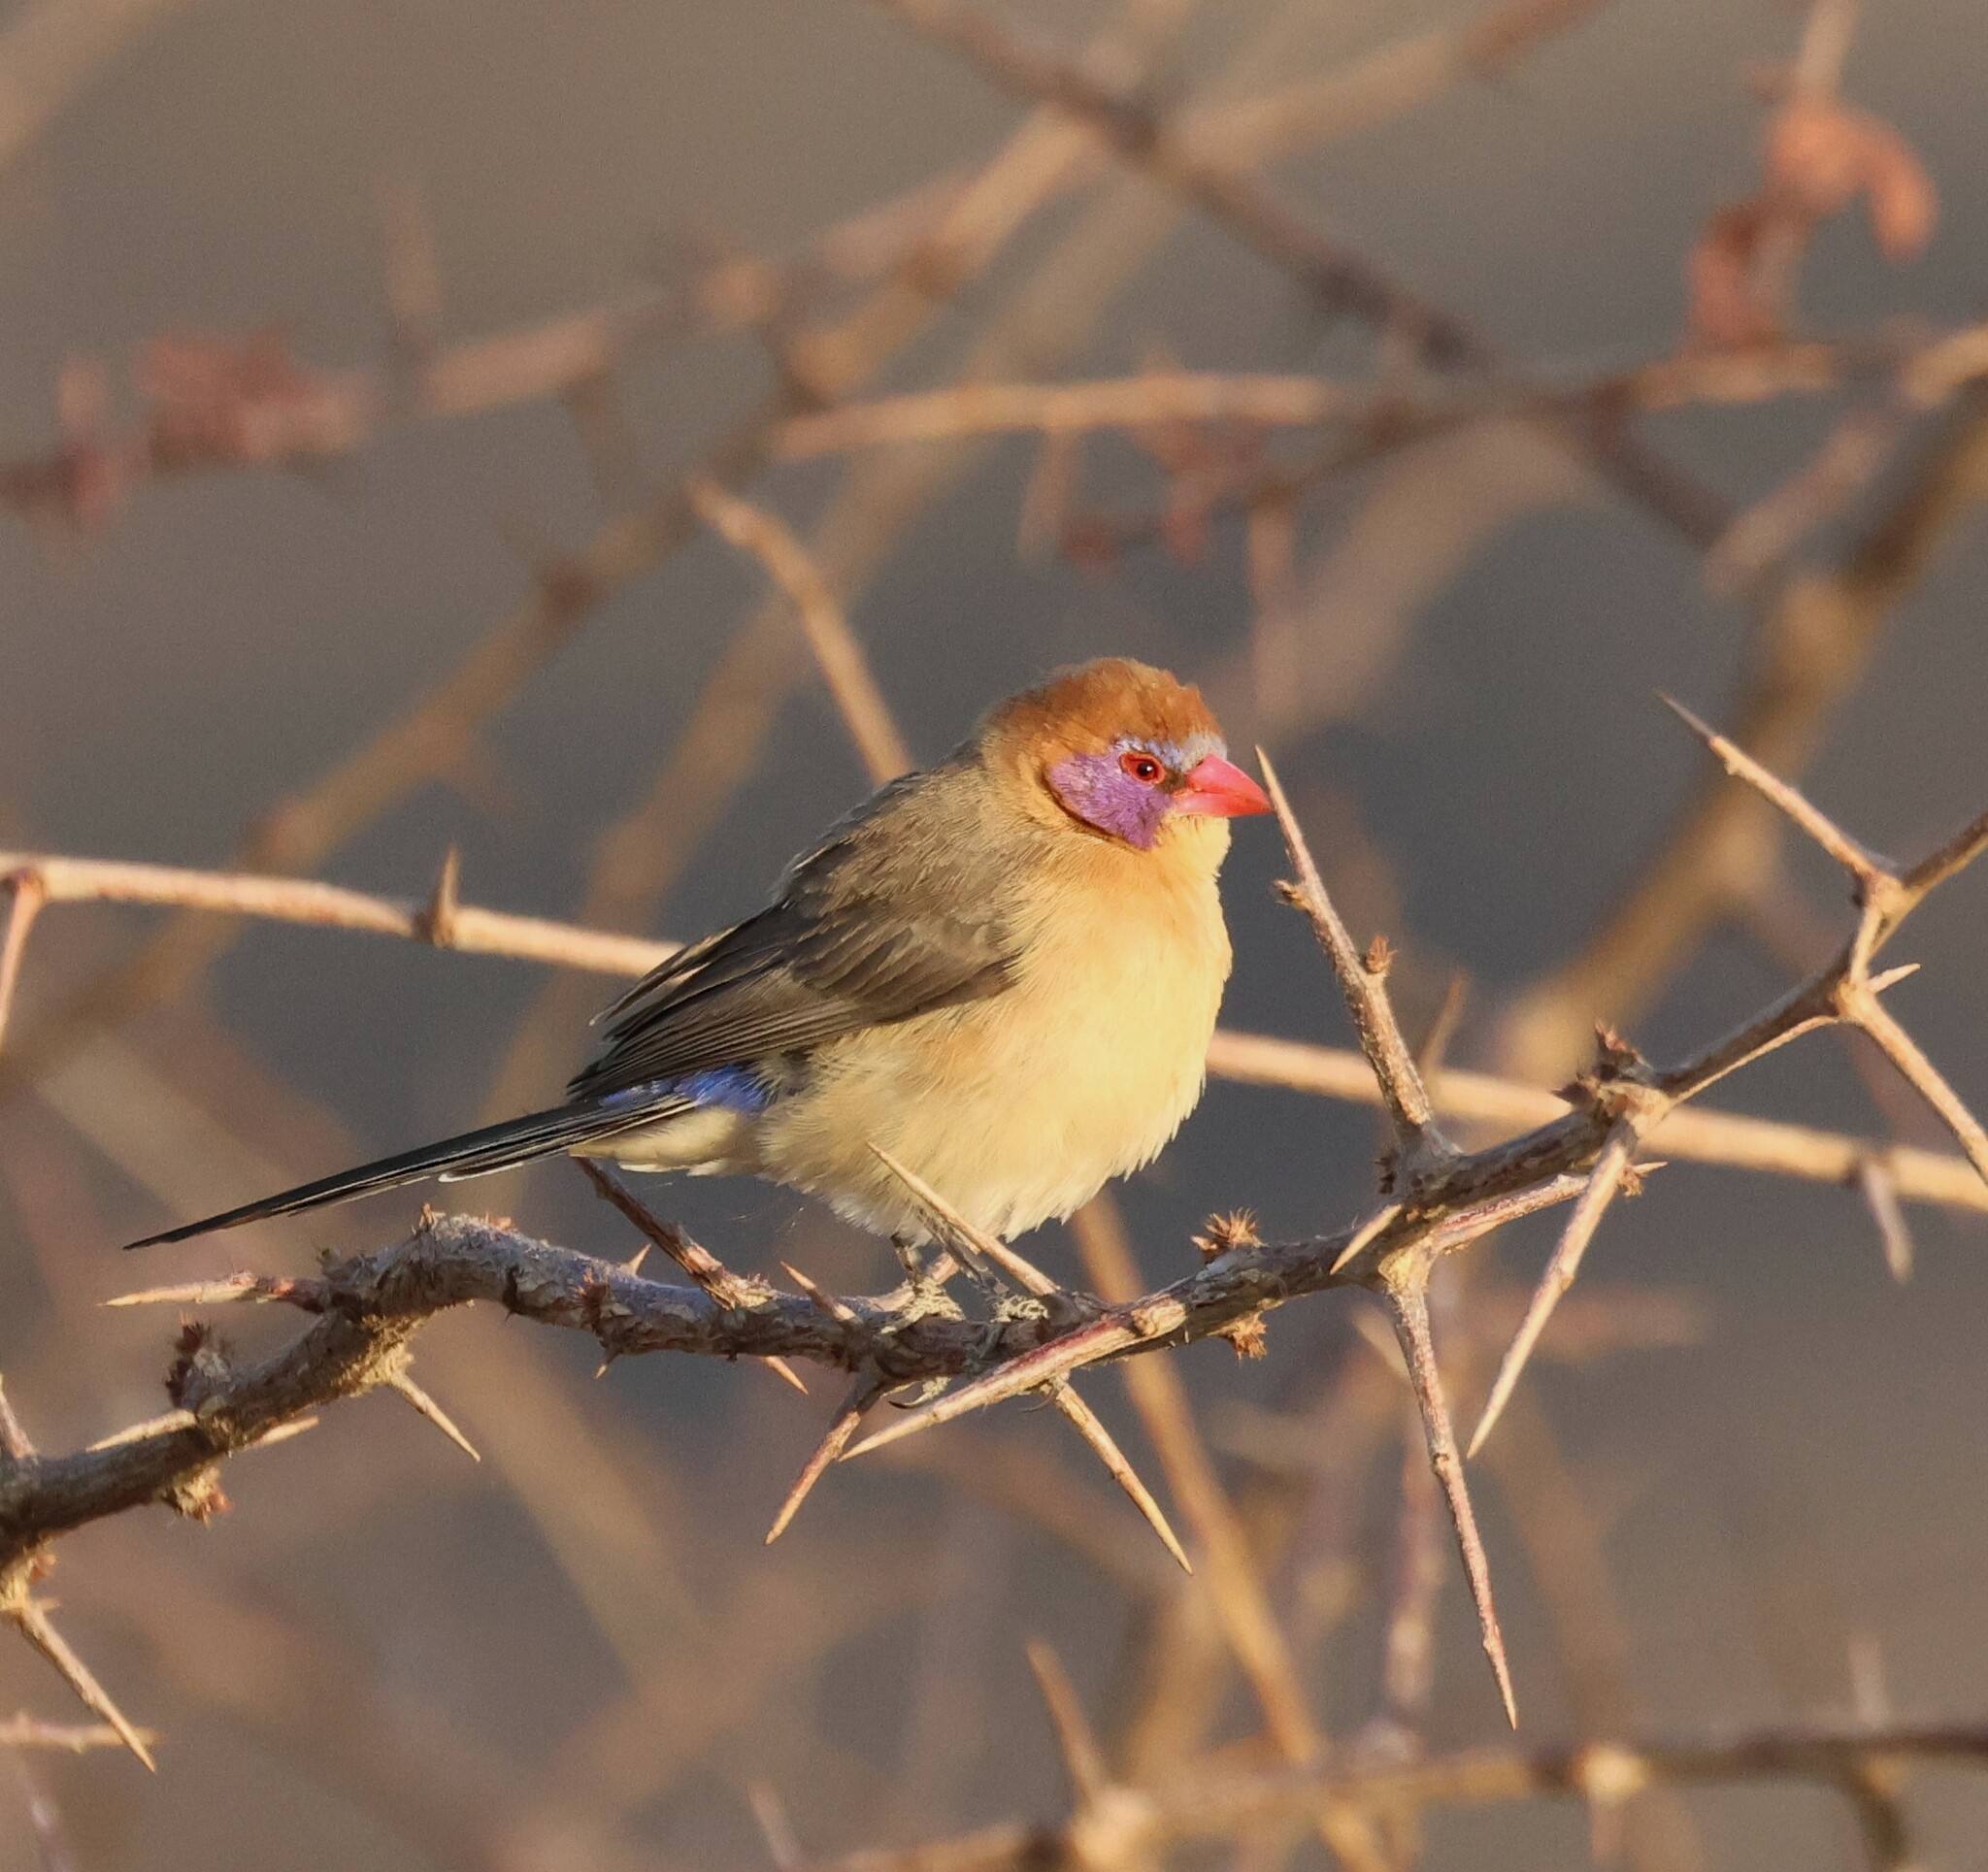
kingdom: Animalia
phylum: Chordata
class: Aves
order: Passeriformes
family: Estrildidae
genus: Uraeginthus
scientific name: Uraeginthus granatinus
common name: Violet-eared waxbill
